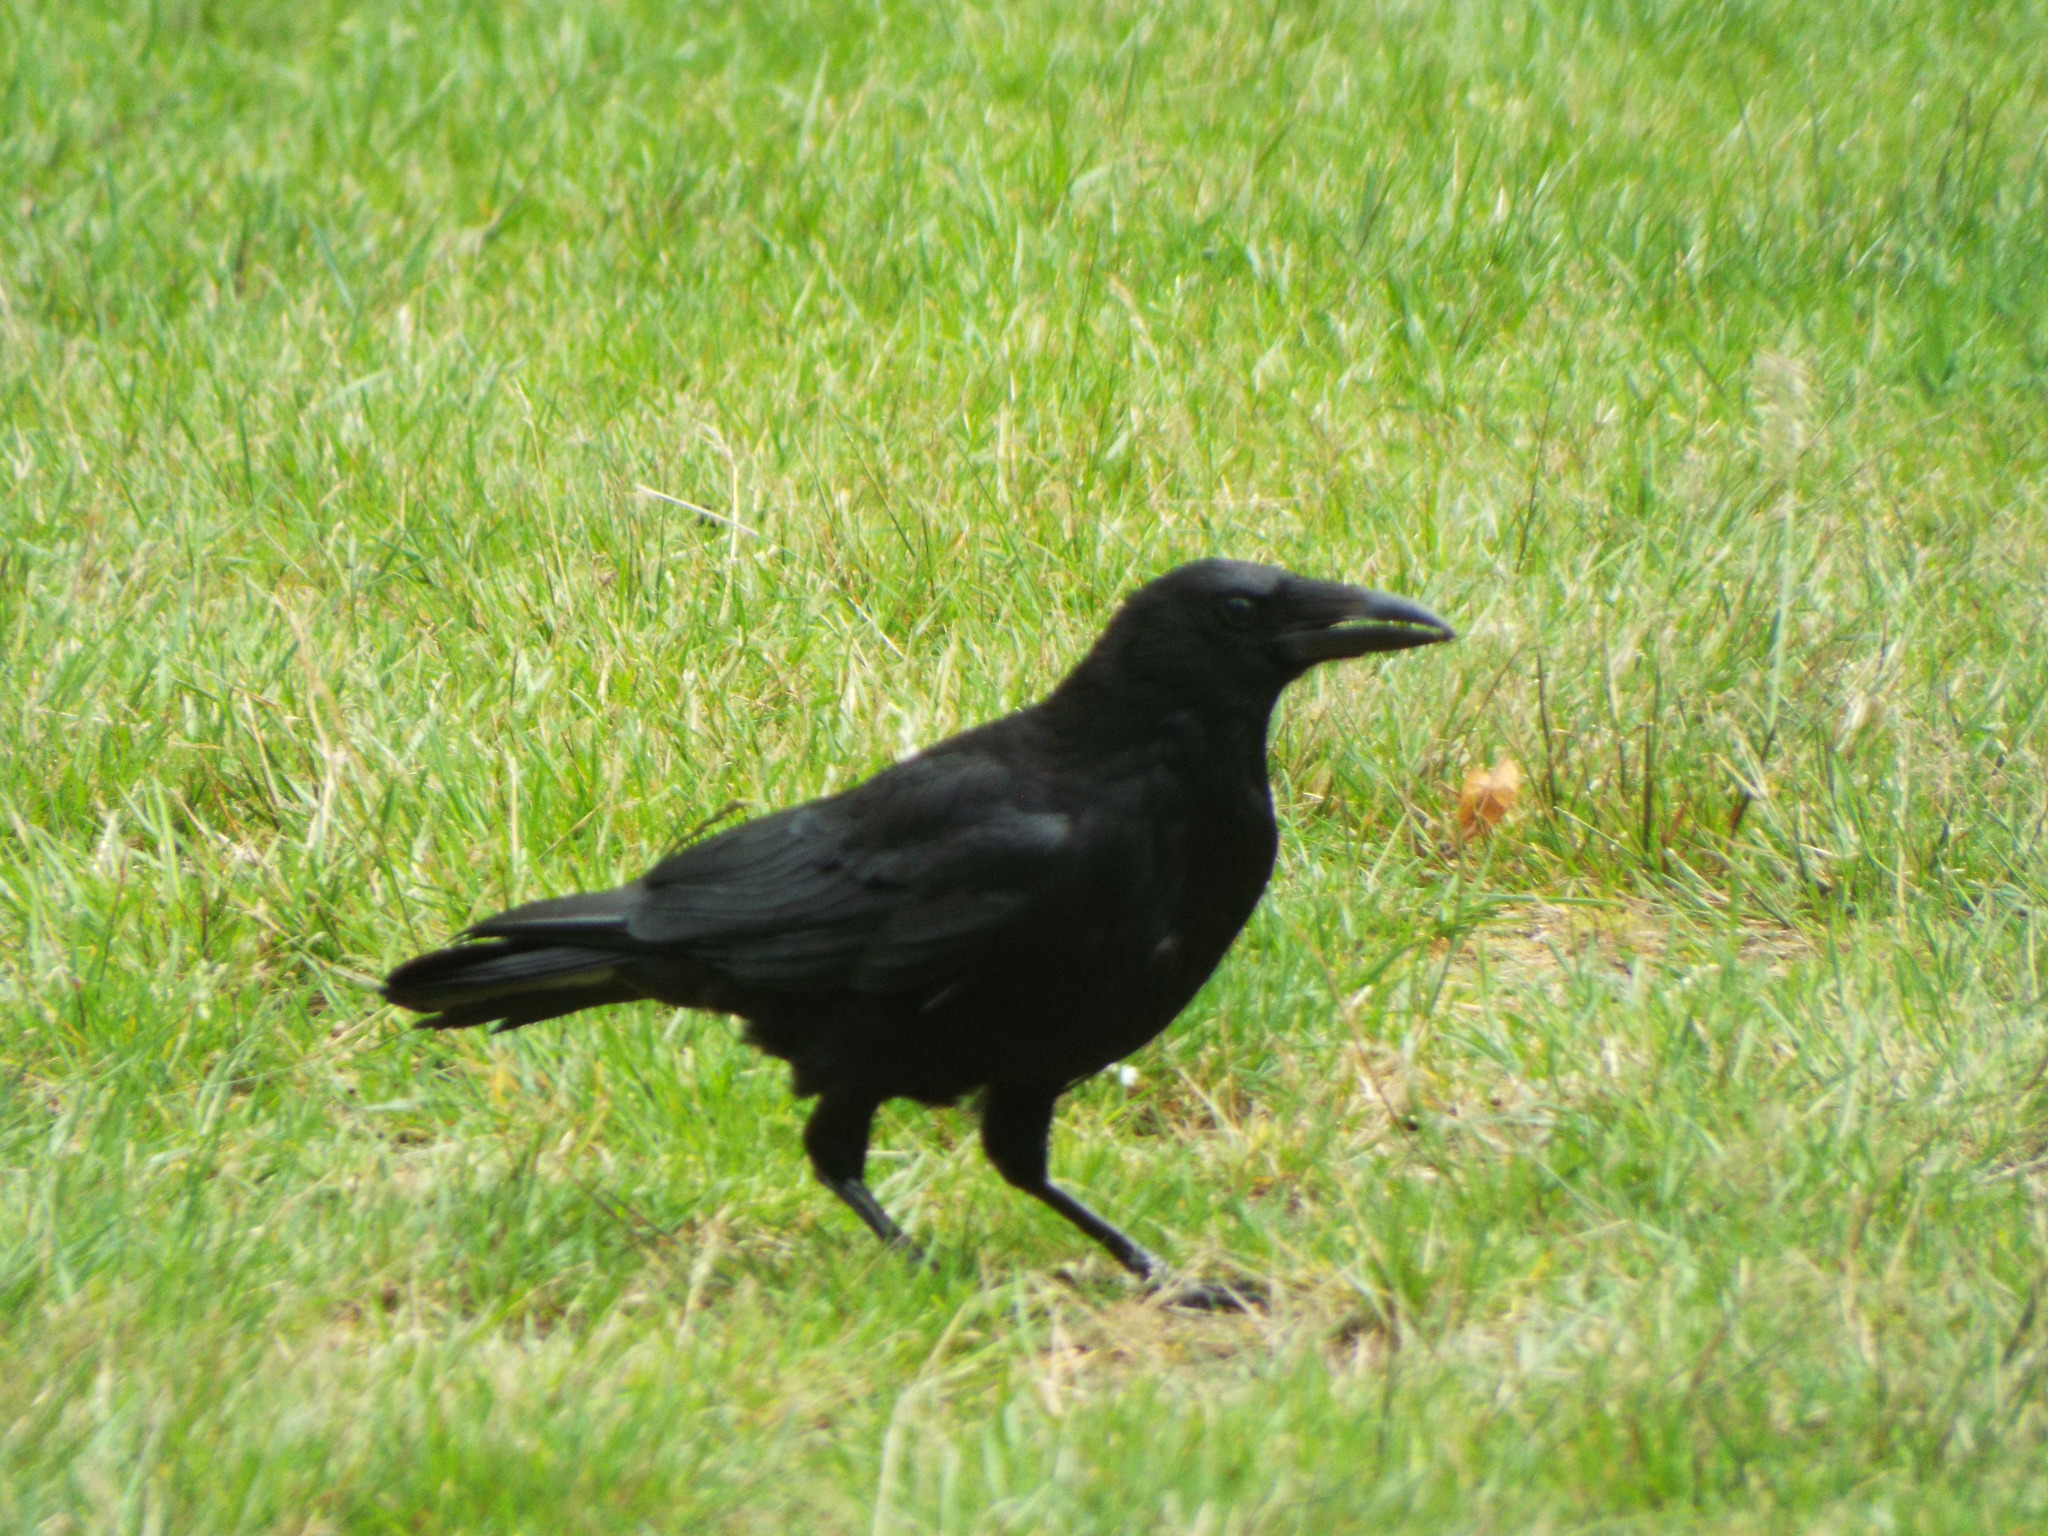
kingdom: Animalia
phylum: Chordata
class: Aves
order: Passeriformes
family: Corvidae
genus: Corvus
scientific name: Corvus corone
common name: Carrion crow
